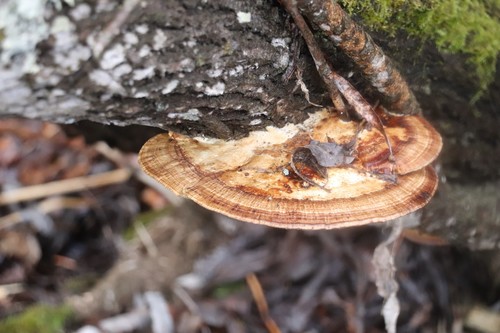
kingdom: Fungi
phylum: Basidiomycota
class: Agaricomycetes
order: Polyporales
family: Polyporaceae
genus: Daedaleopsis
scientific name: Daedaleopsis confragosa
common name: Blushing bracket
